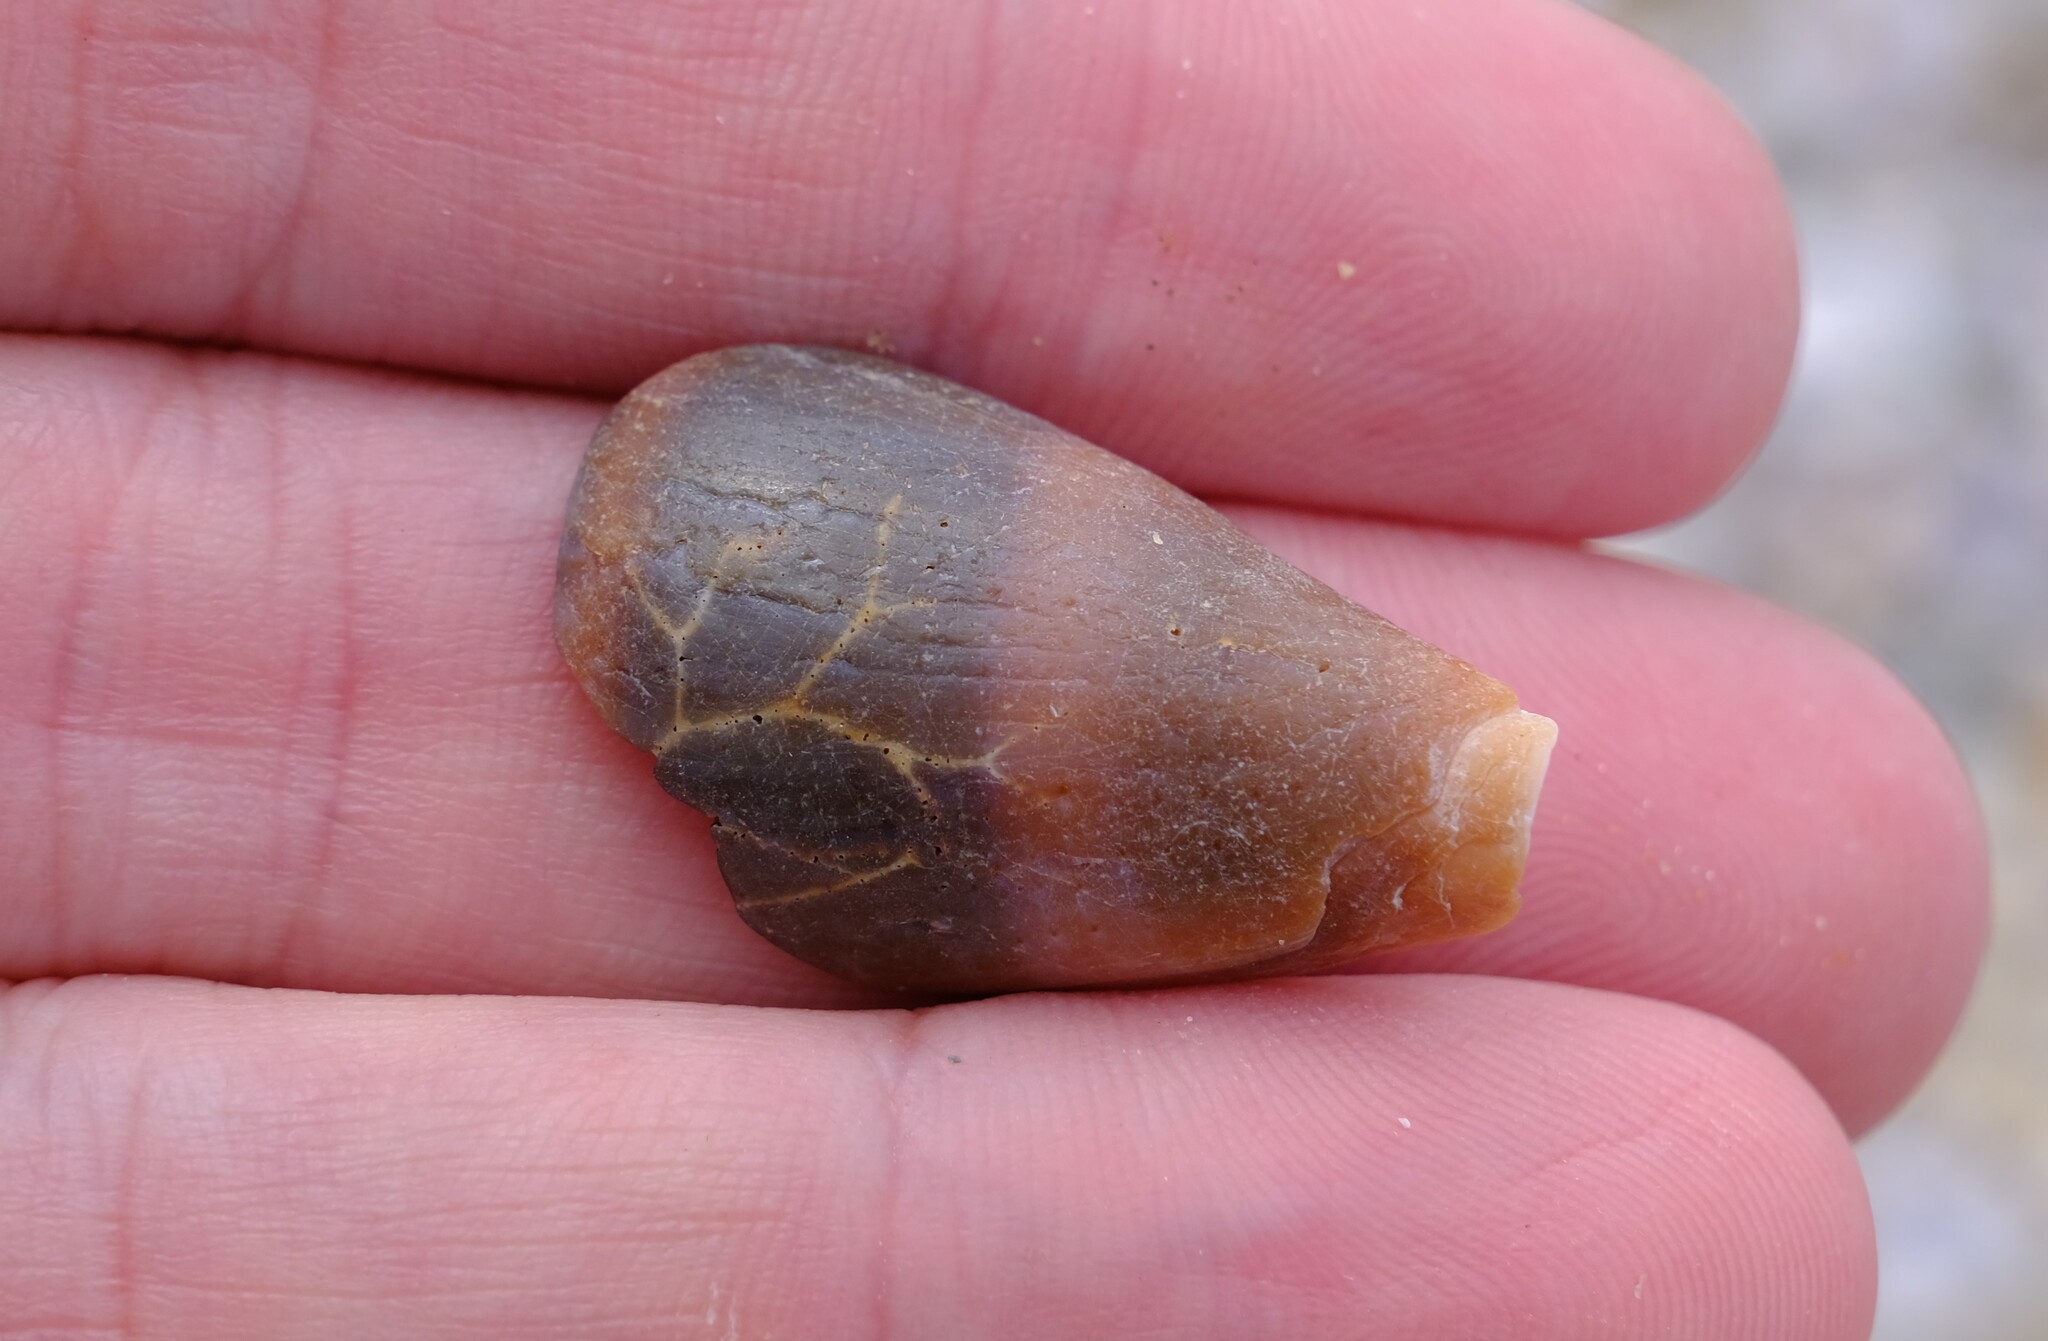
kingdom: Animalia
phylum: Mollusca
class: Gastropoda
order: Neogastropoda
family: Conidae
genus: Conus
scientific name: Conus papilliferus
